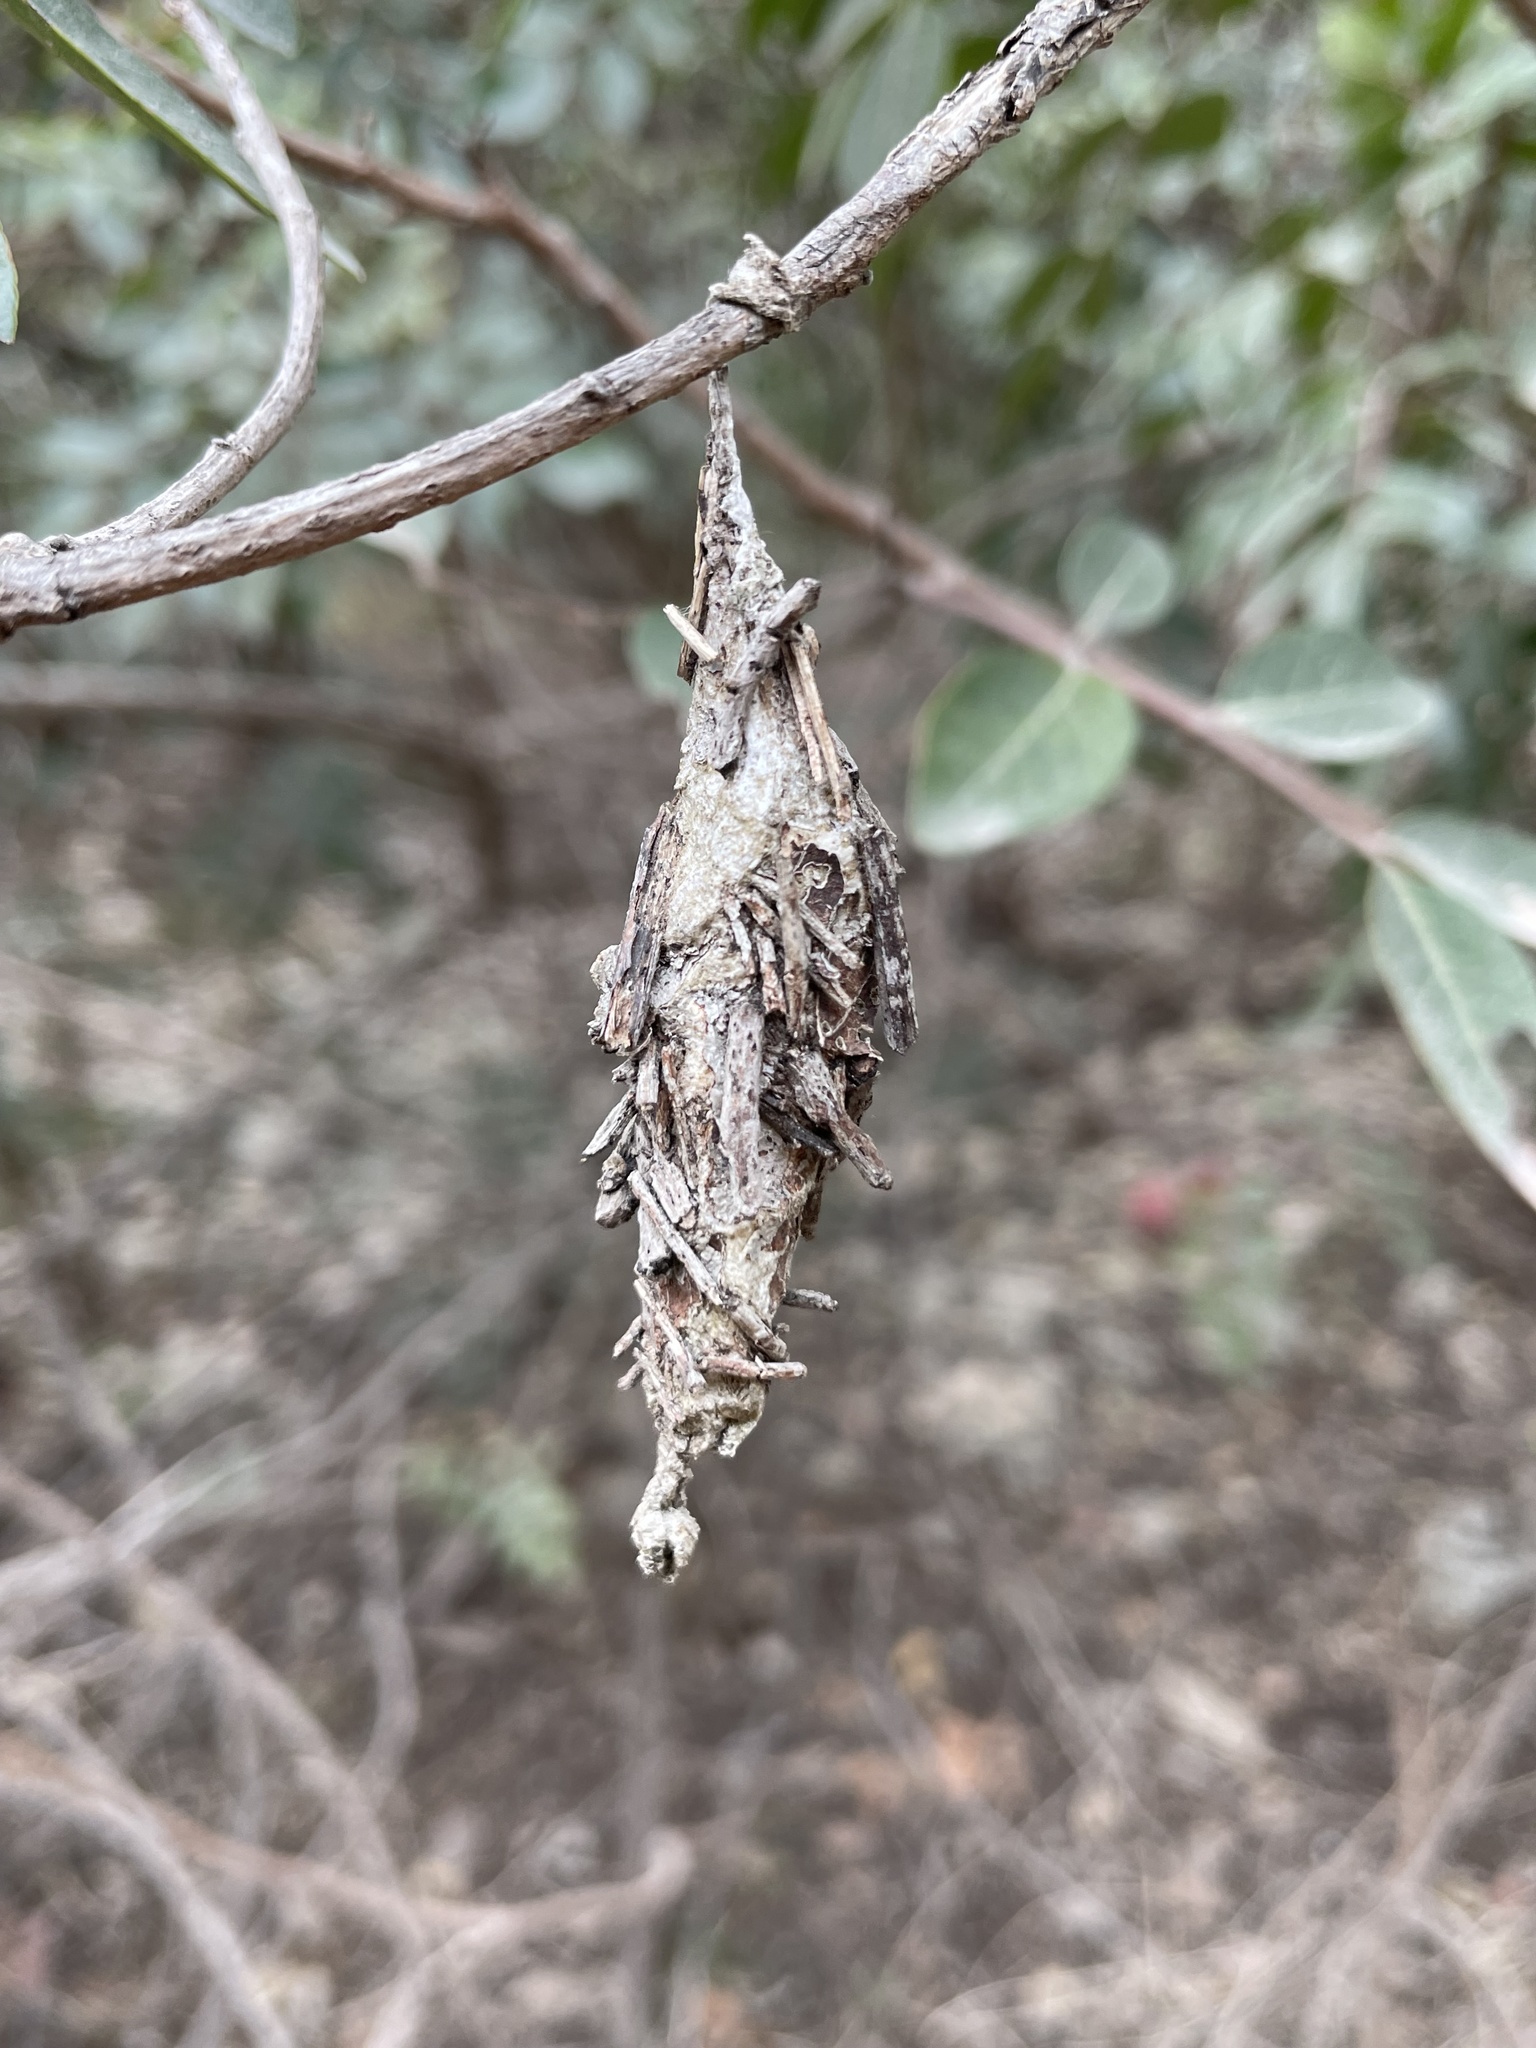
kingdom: Animalia
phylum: Arthropoda
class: Insecta
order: Lepidoptera
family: Psychidae
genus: Thyridopteryx
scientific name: Thyridopteryx ephemeraeformis
